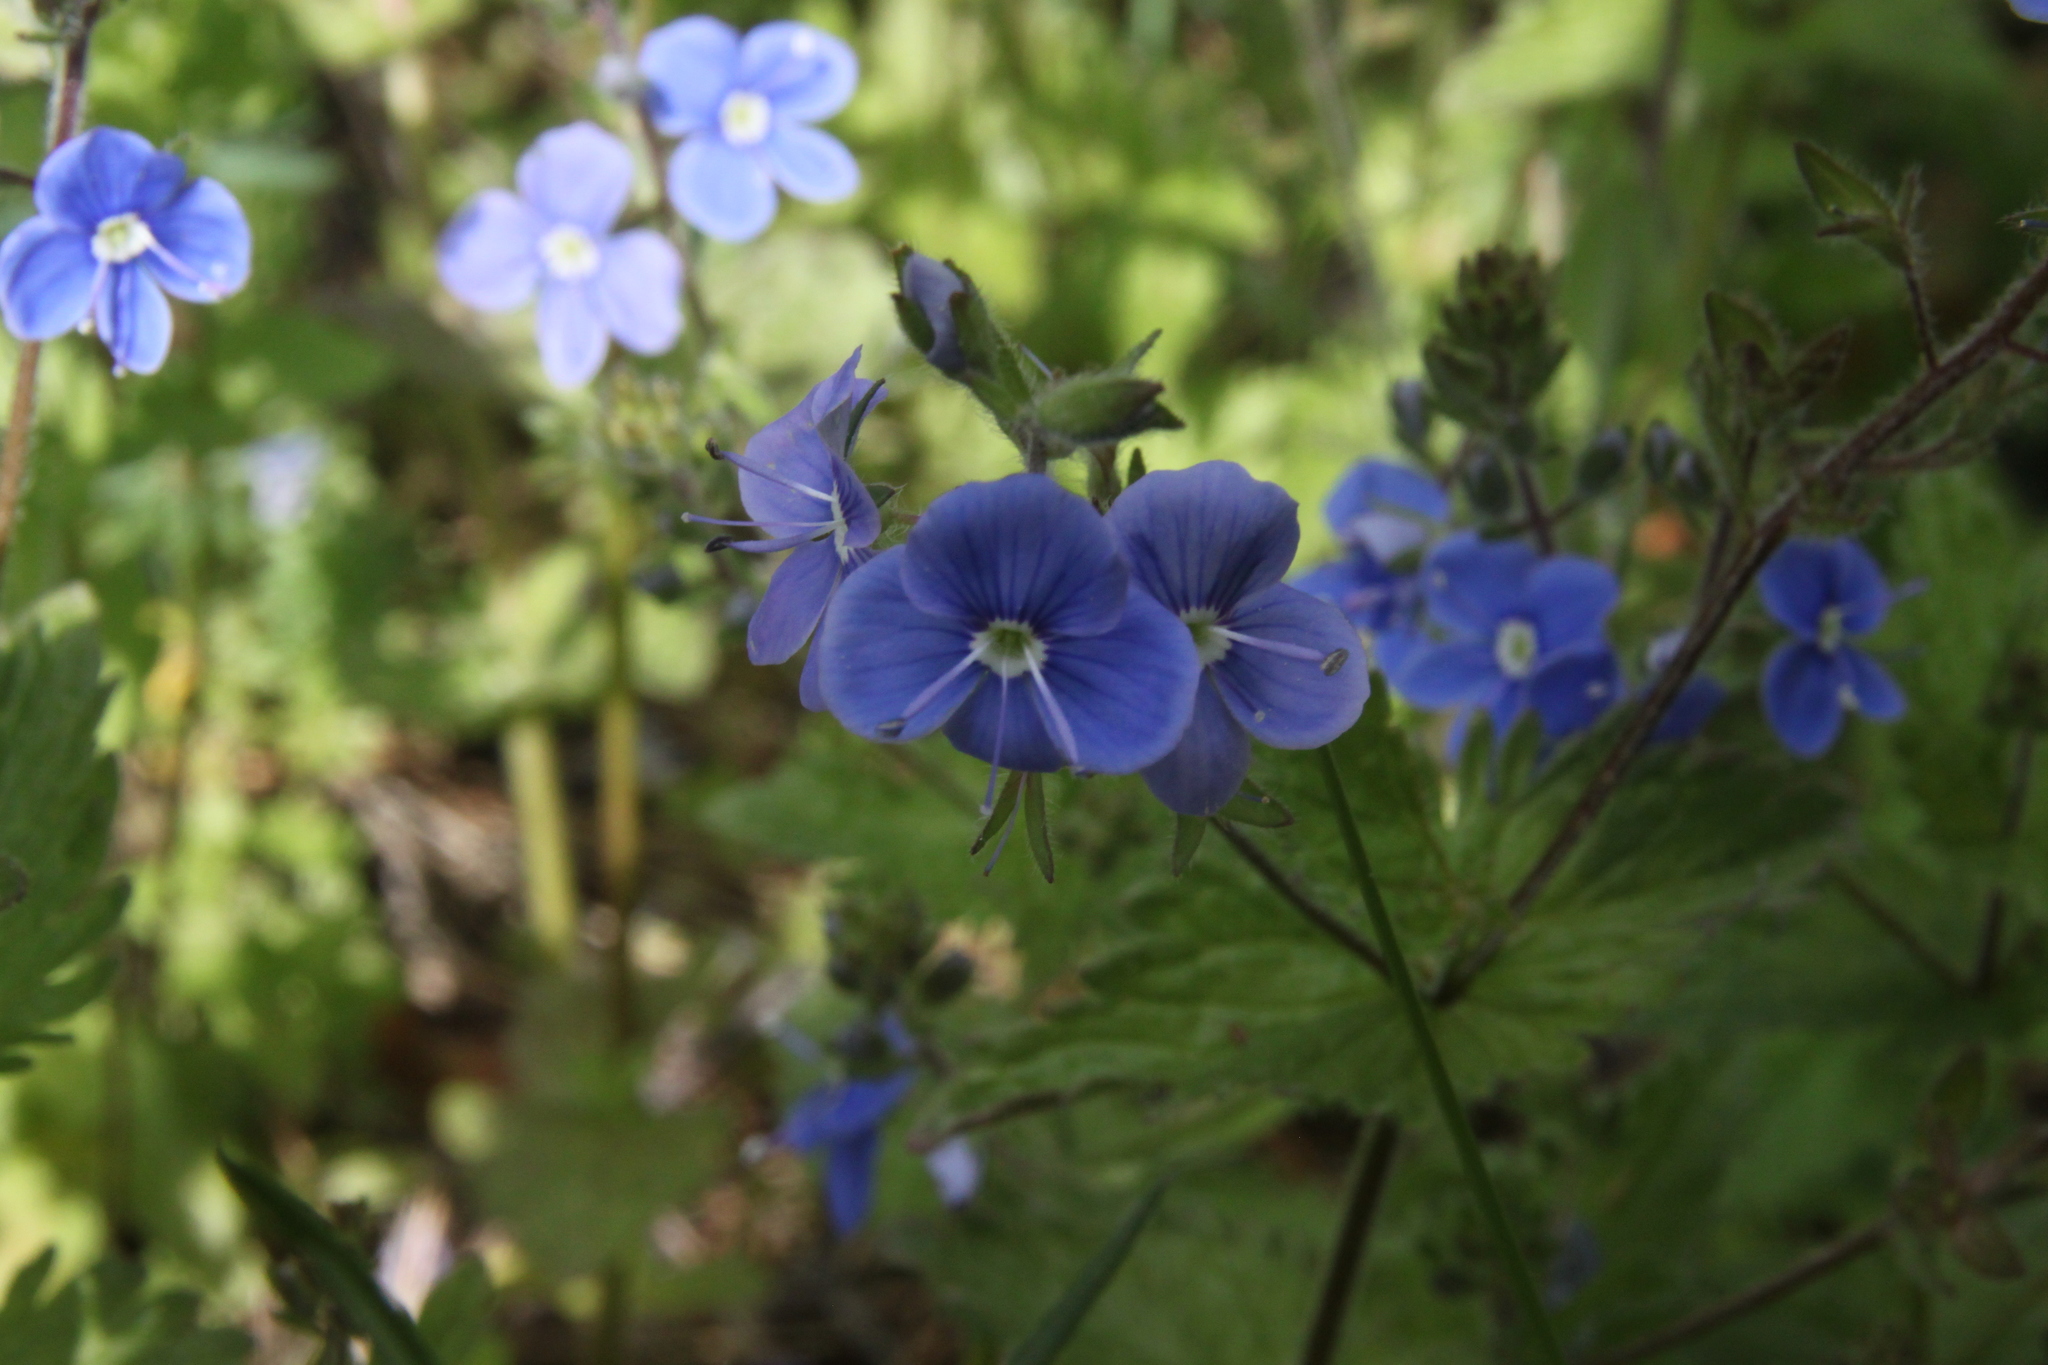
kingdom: Plantae
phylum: Tracheophyta
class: Magnoliopsida
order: Lamiales
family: Plantaginaceae
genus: Veronica
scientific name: Veronica chamaedrys
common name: Germander speedwell
